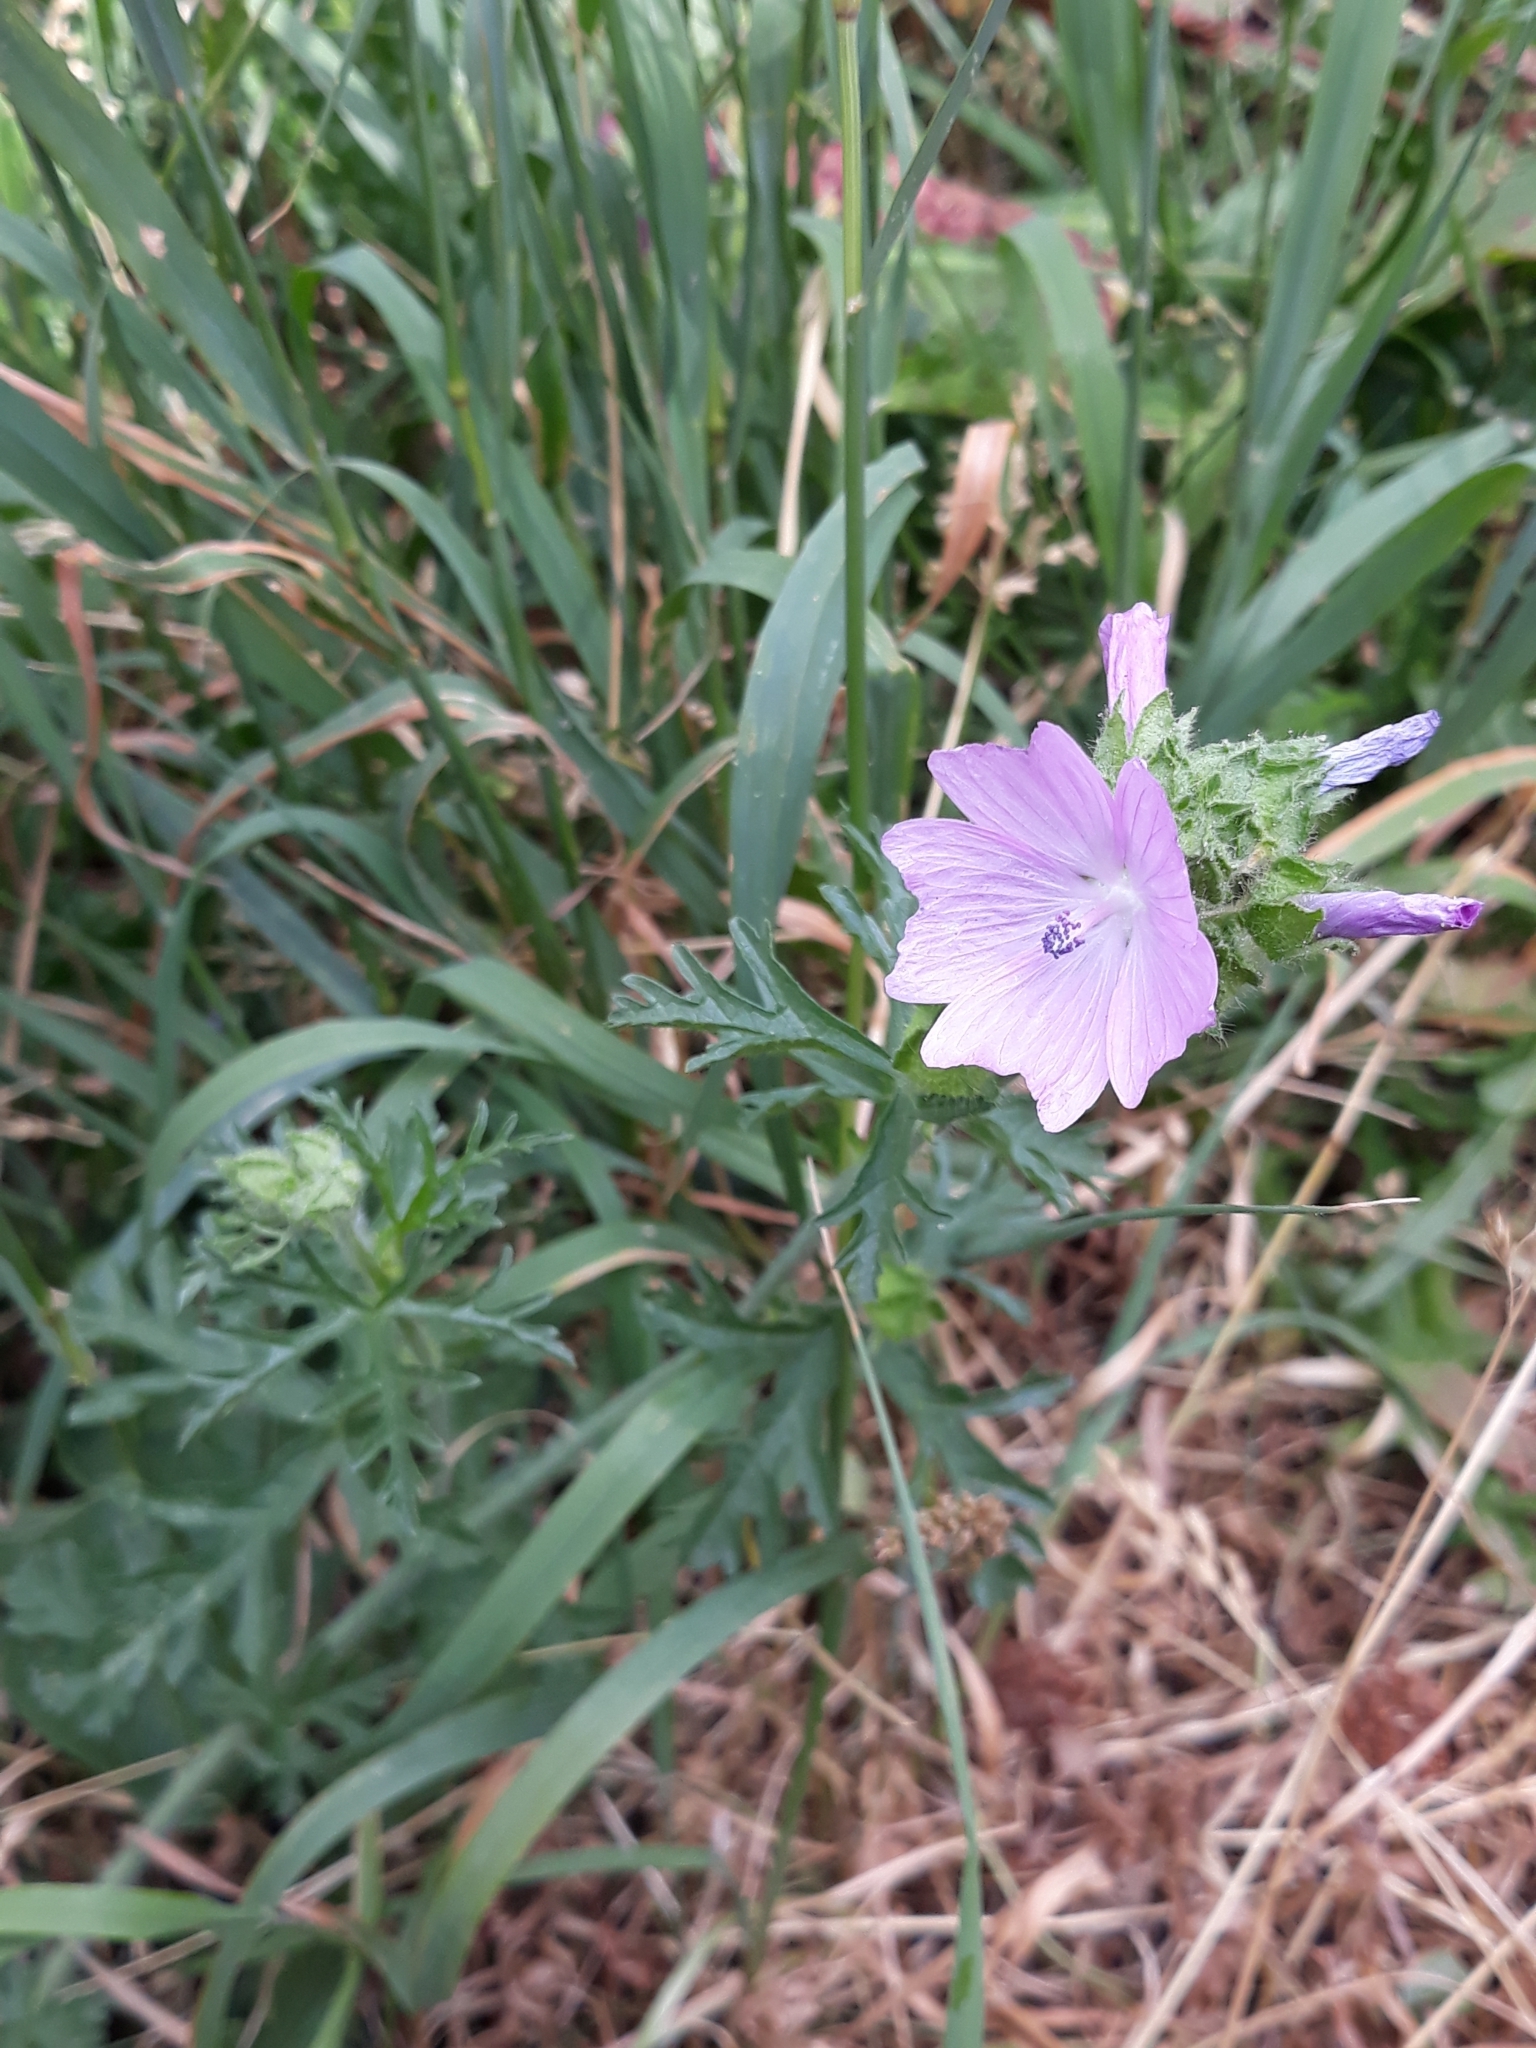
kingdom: Plantae
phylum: Tracheophyta
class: Magnoliopsida
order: Malvales
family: Malvaceae
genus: Malva
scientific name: Malva moschata
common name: Musk mallow
